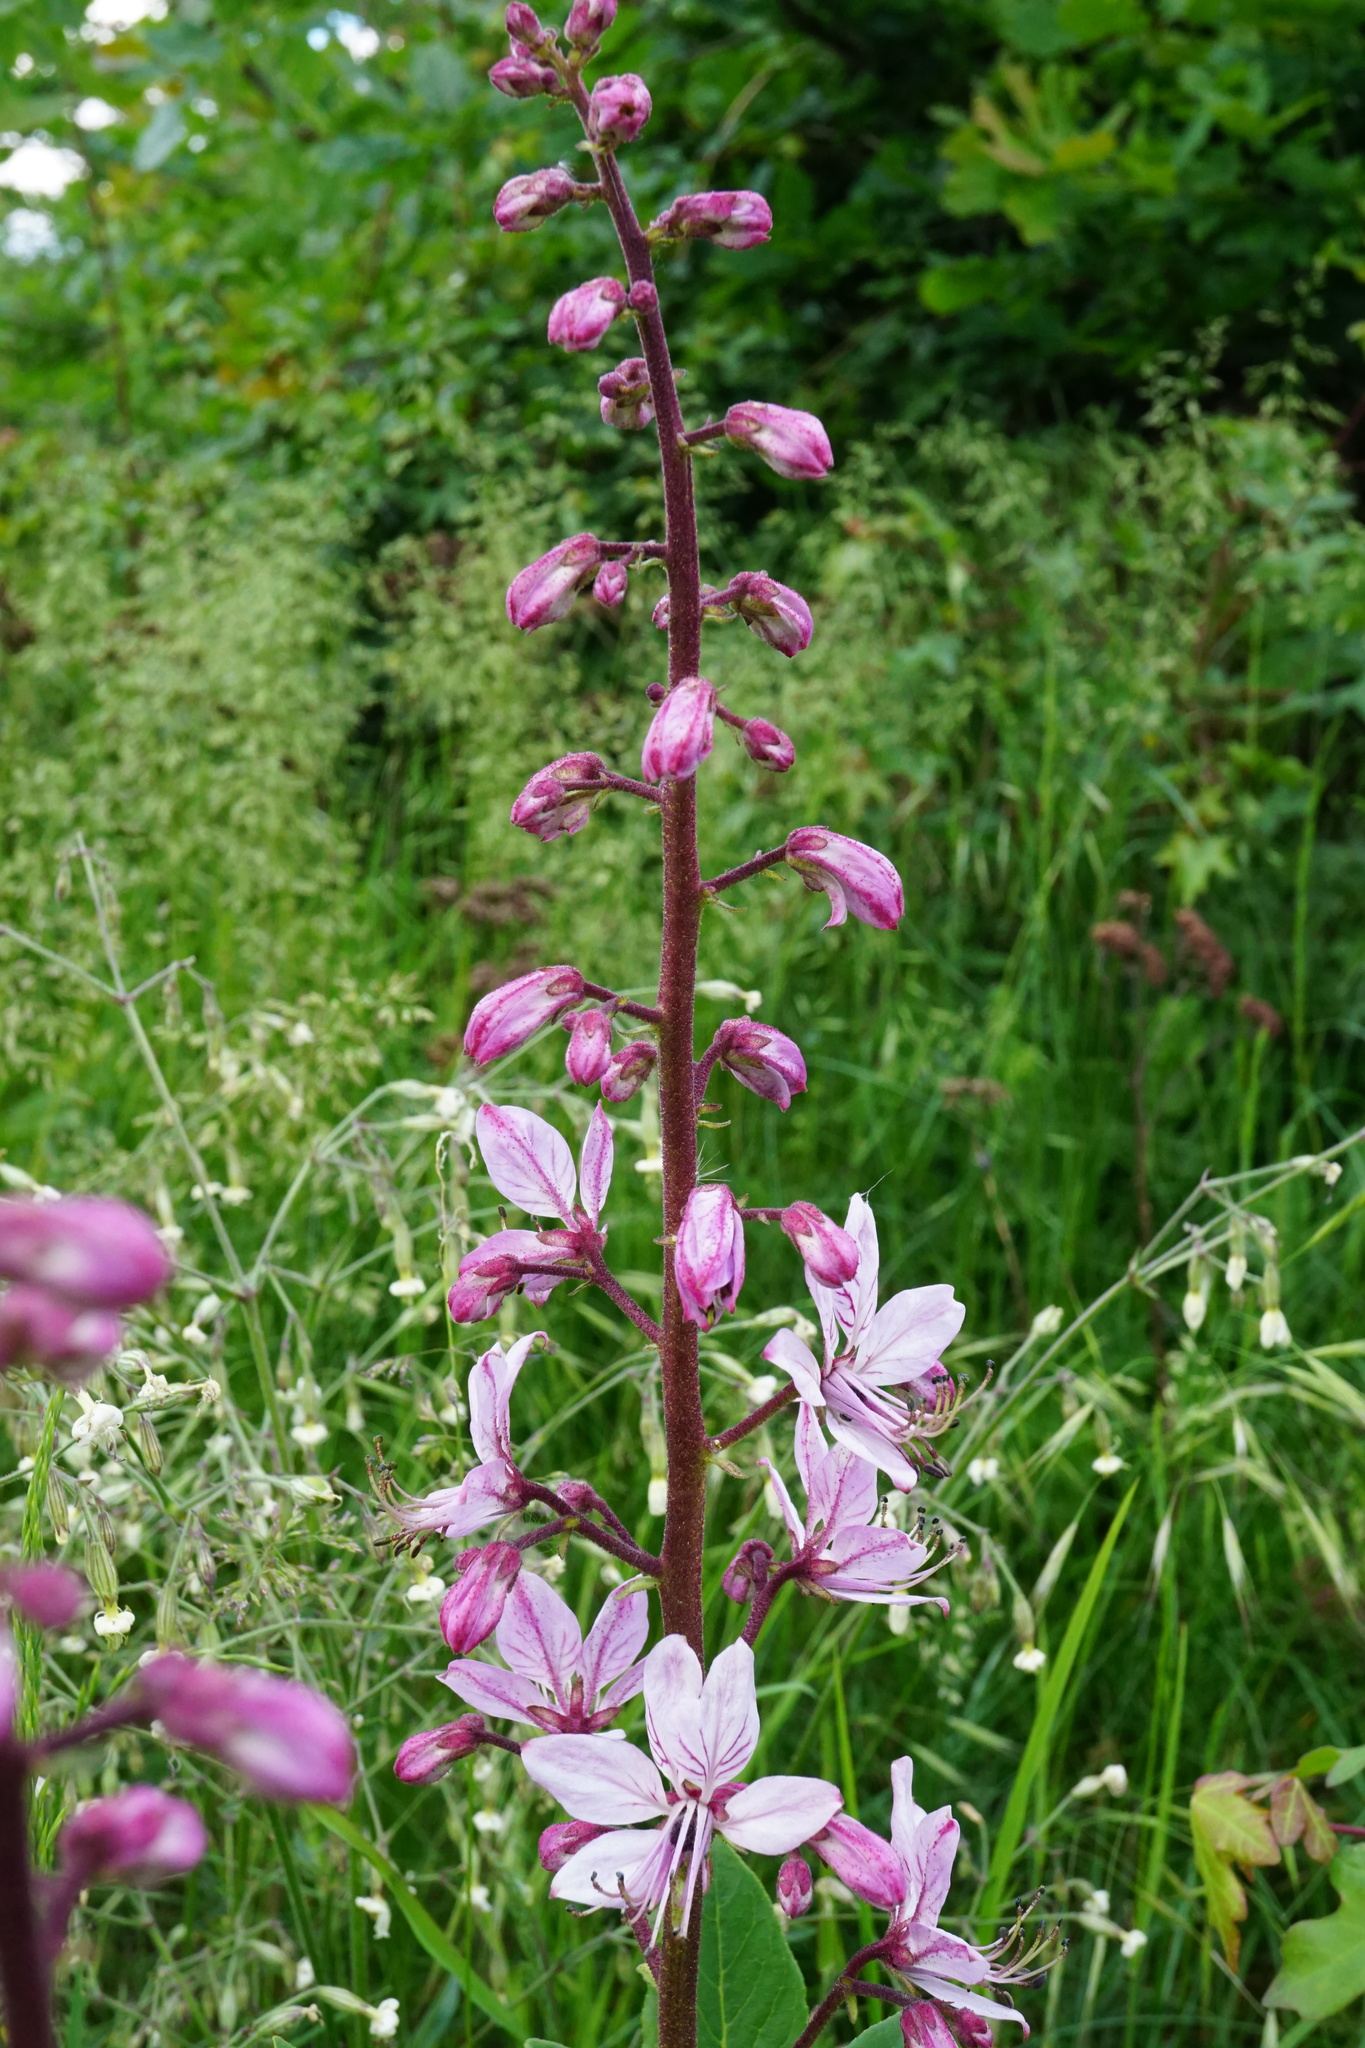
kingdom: Plantae
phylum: Tracheophyta
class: Magnoliopsida
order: Sapindales
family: Rutaceae
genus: Dictamnus
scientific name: Dictamnus albus
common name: Gasplant
